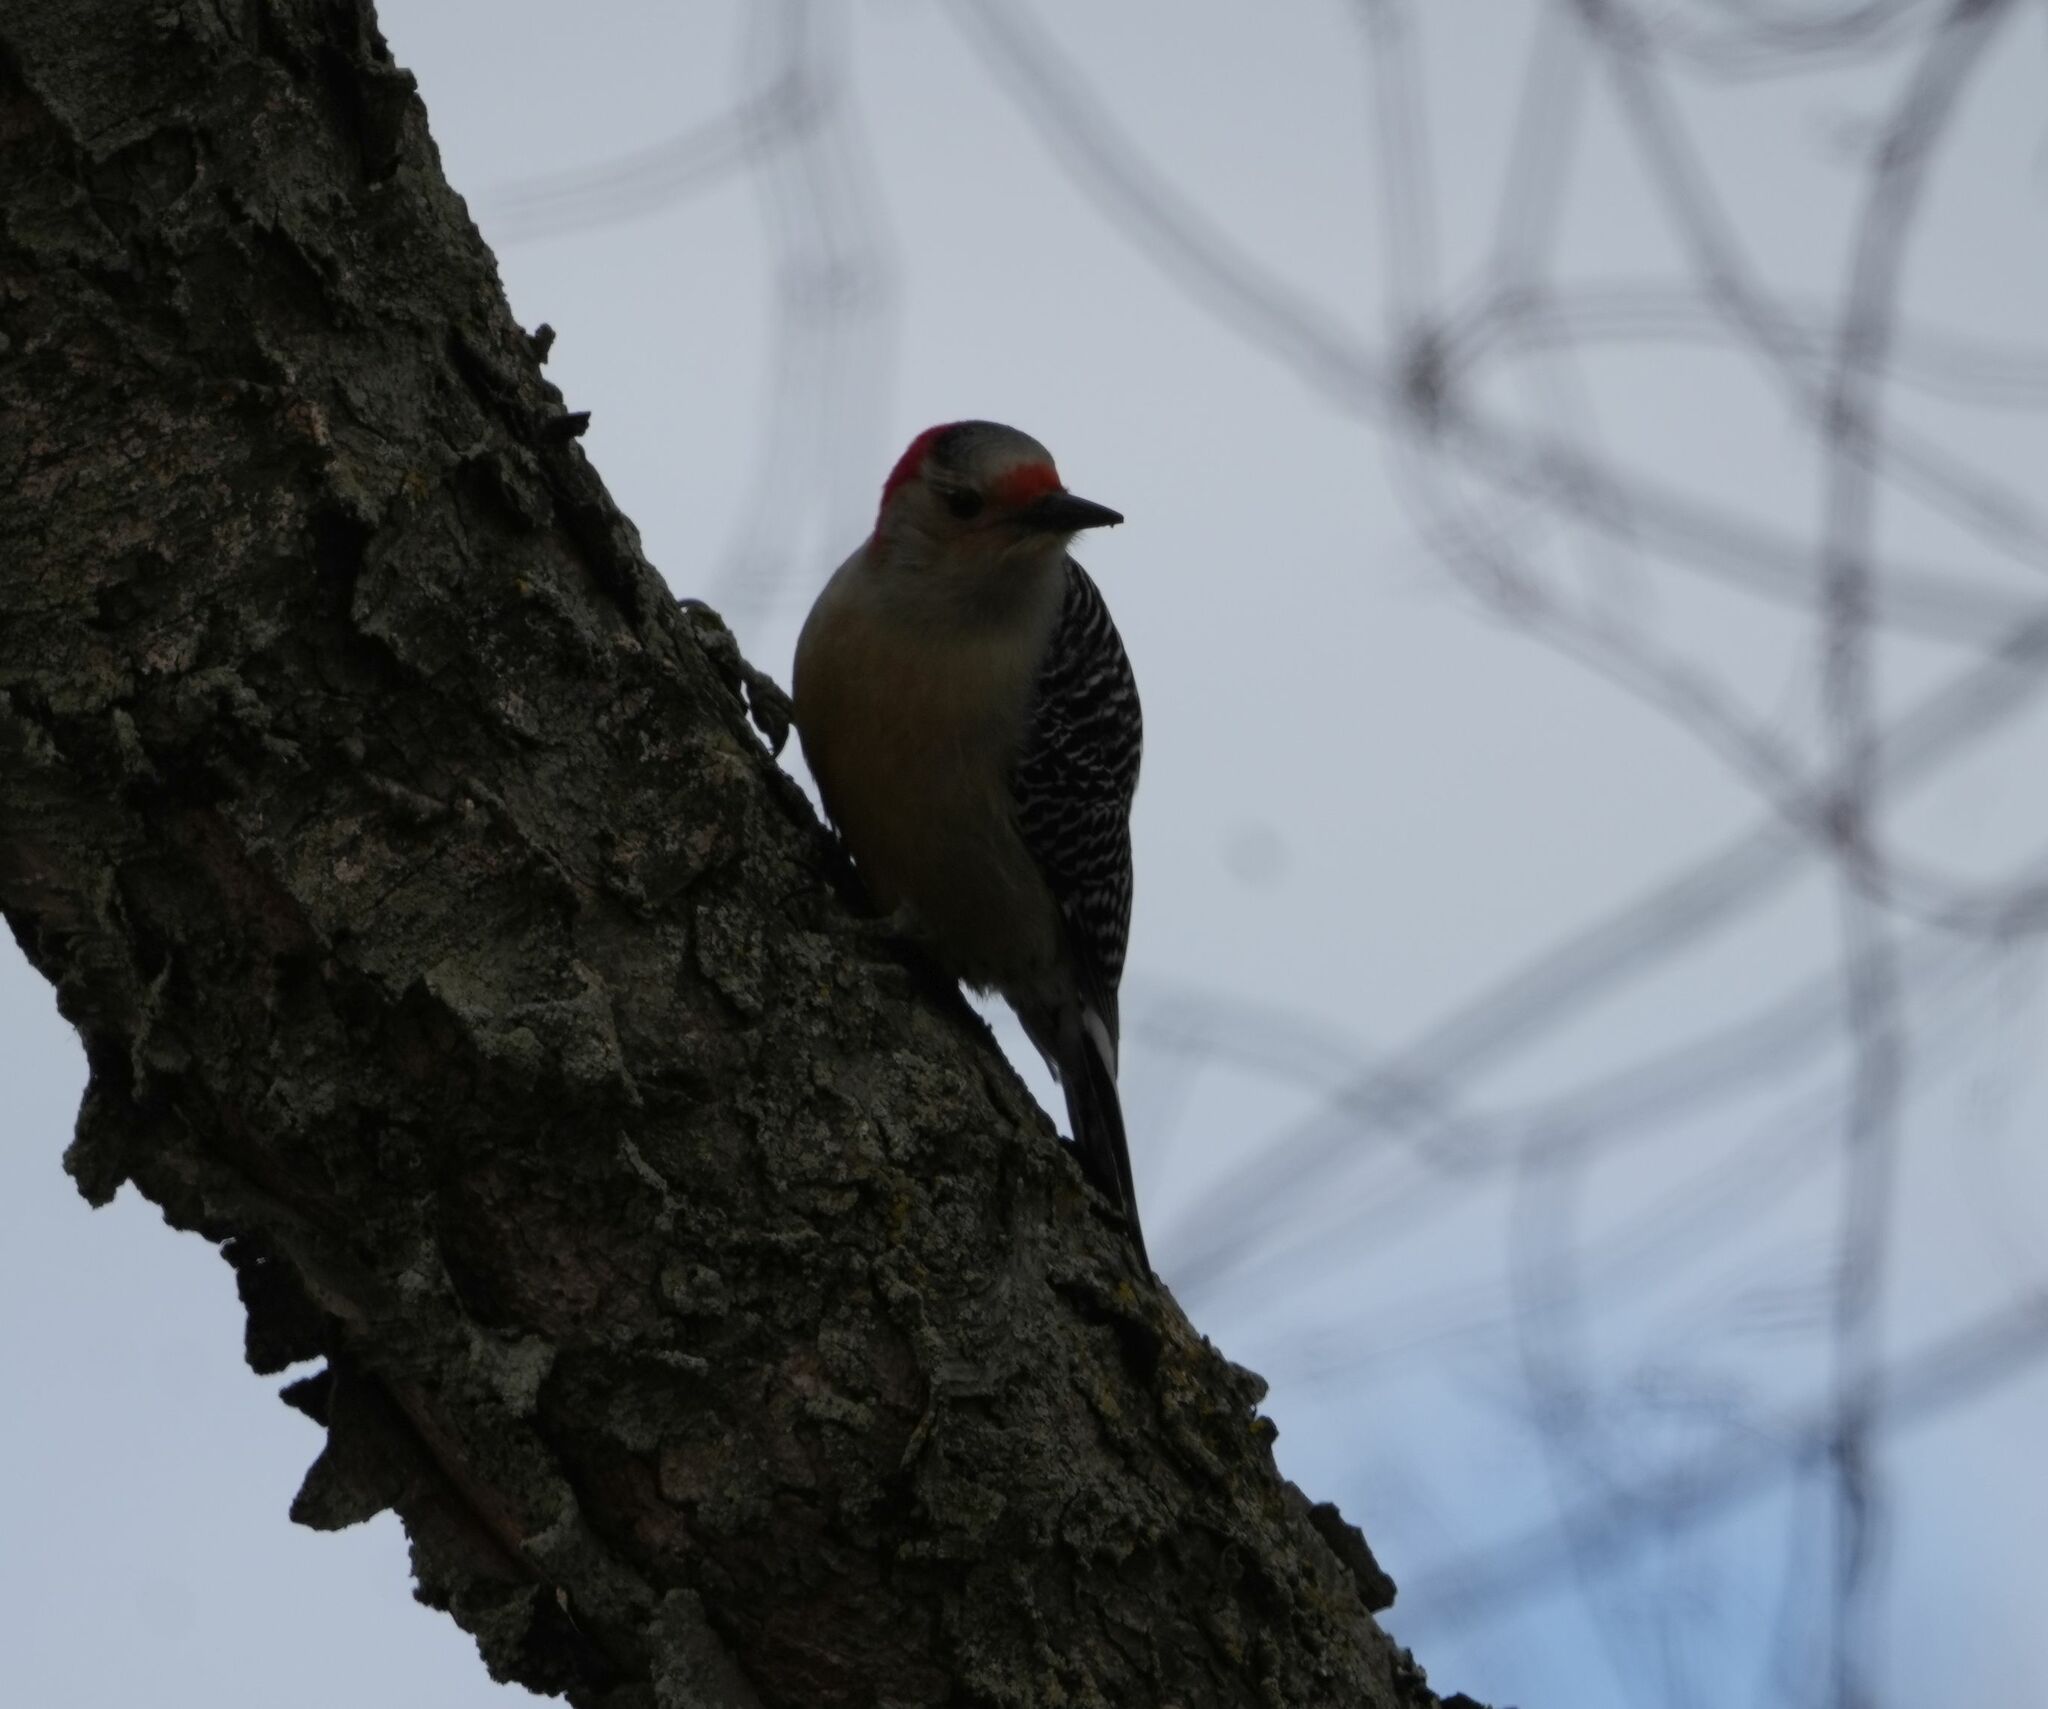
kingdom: Animalia
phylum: Chordata
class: Aves
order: Piciformes
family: Picidae
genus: Melanerpes
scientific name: Melanerpes carolinus
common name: Red-bellied woodpecker
